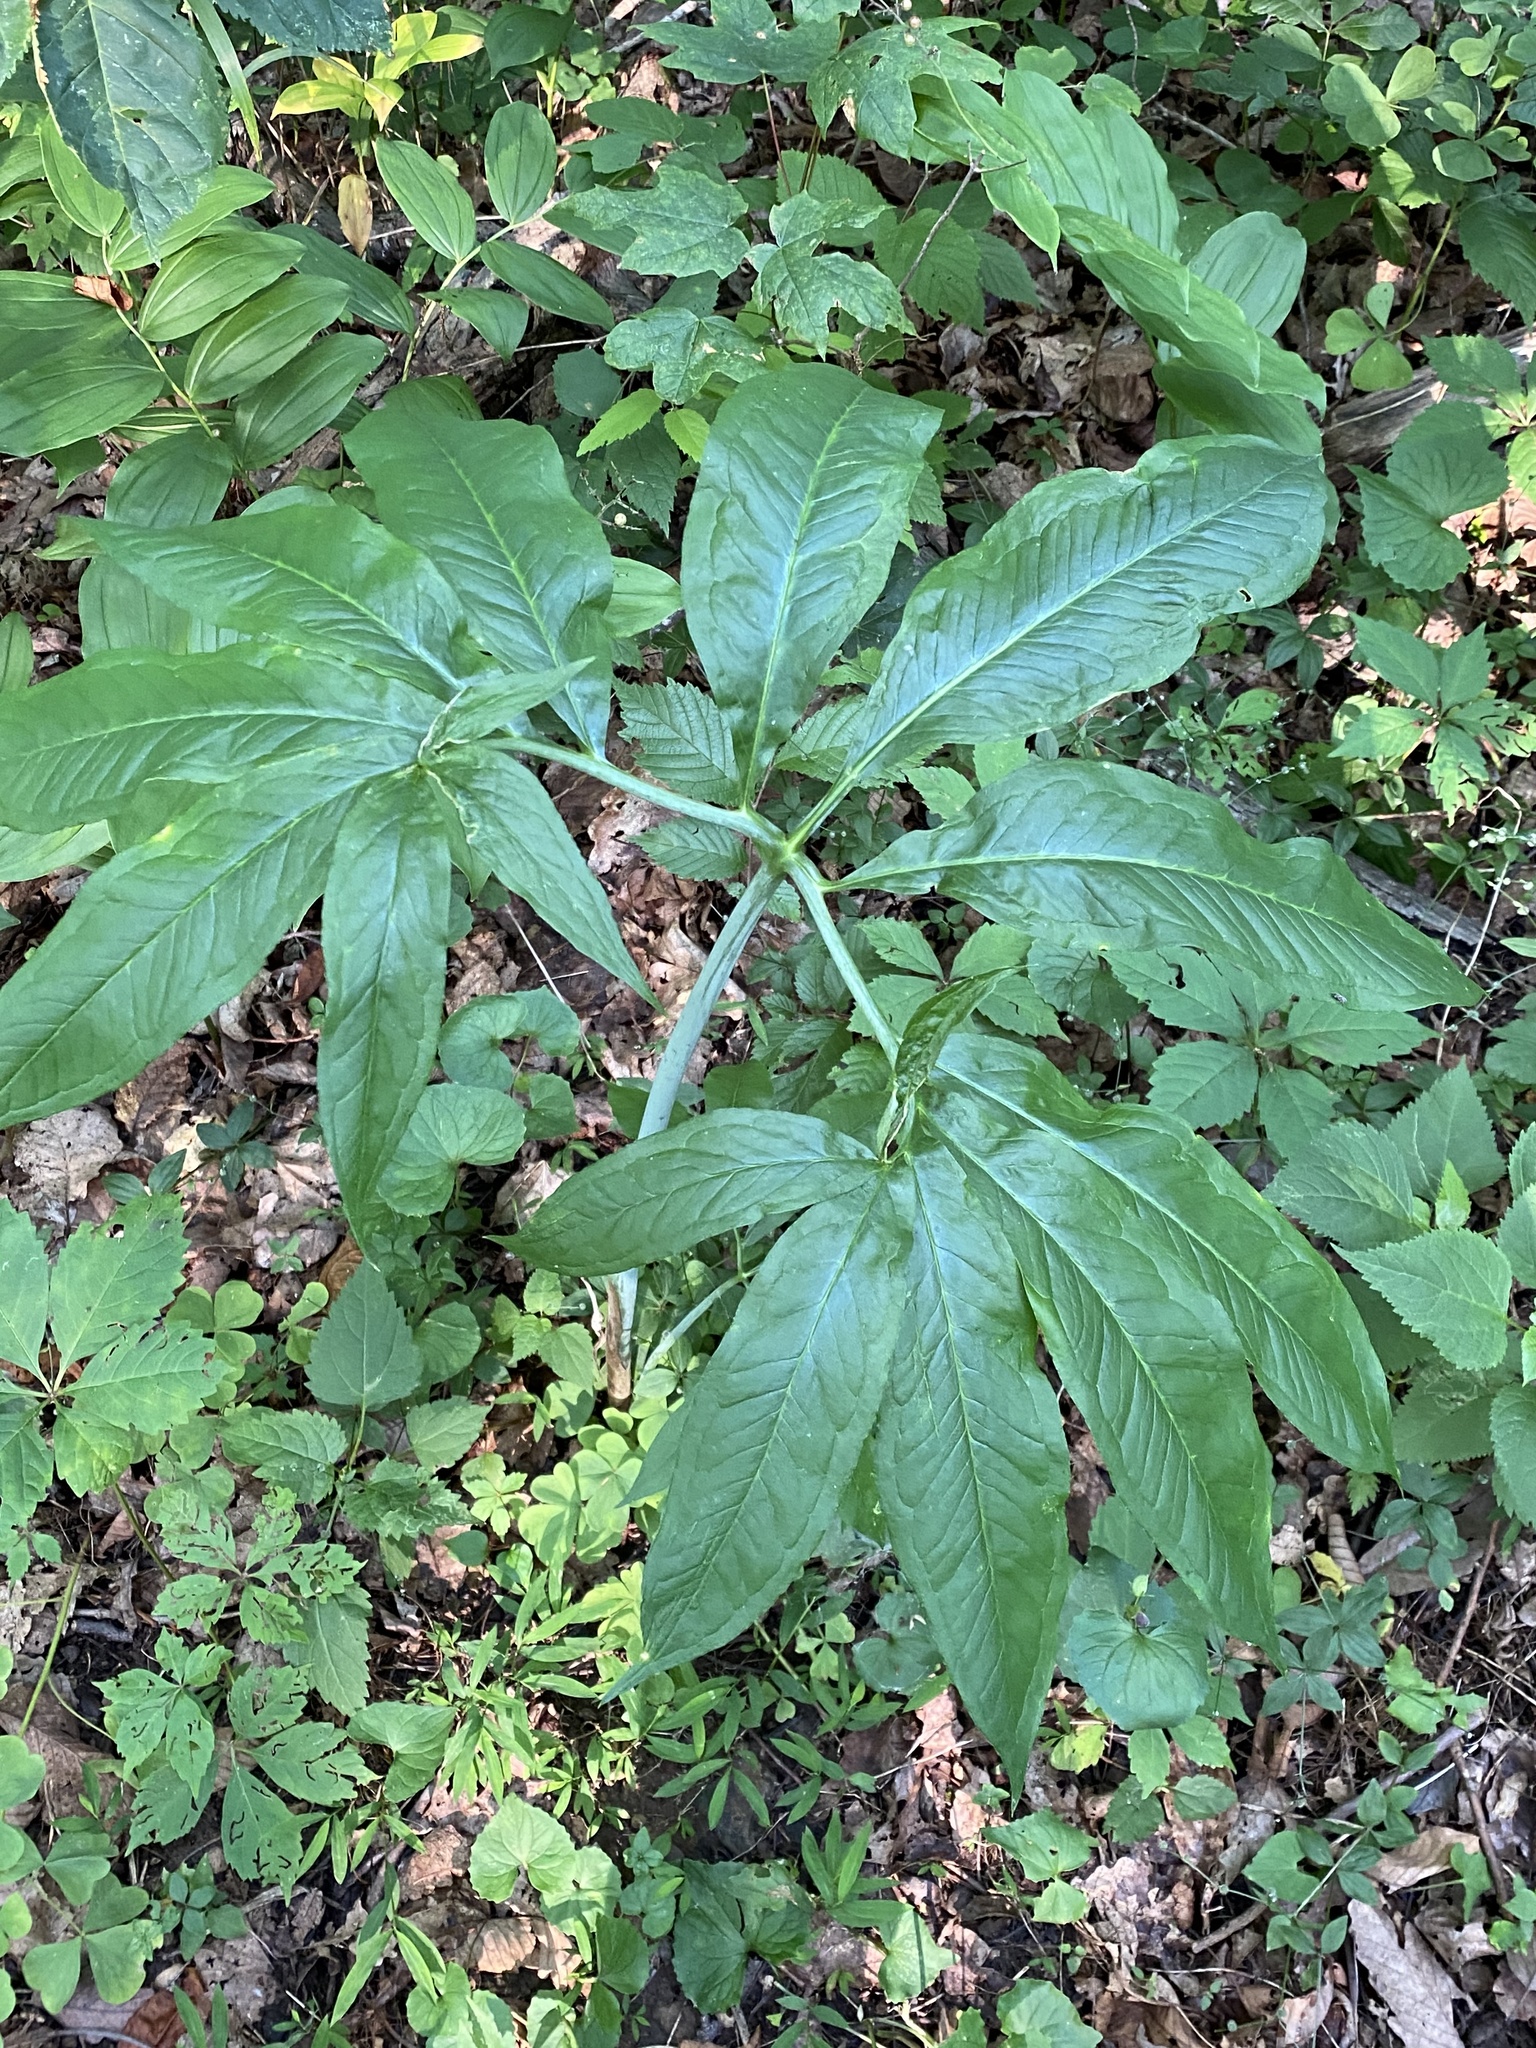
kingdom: Plantae
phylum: Tracheophyta
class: Liliopsida
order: Alismatales
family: Araceae
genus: Arisaema
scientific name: Arisaema dracontium
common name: Dragon-arum
